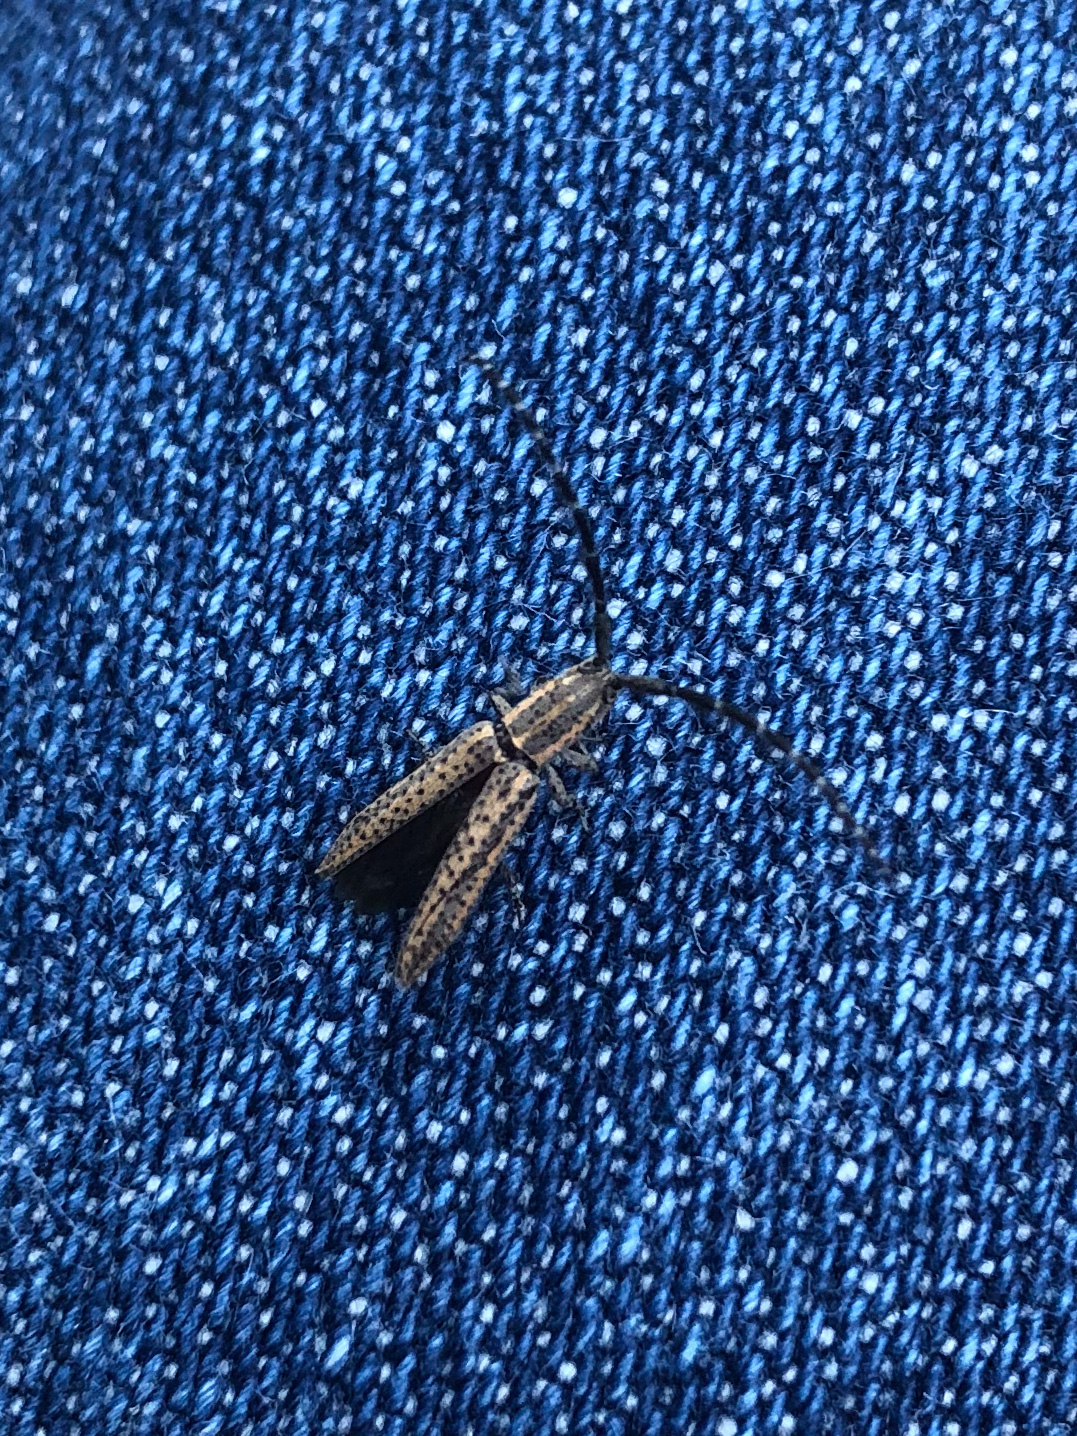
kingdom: Animalia
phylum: Arthropoda
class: Insecta
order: Coleoptera
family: Cerambycidae
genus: Dorcasta
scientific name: Dorcasta cinerea
